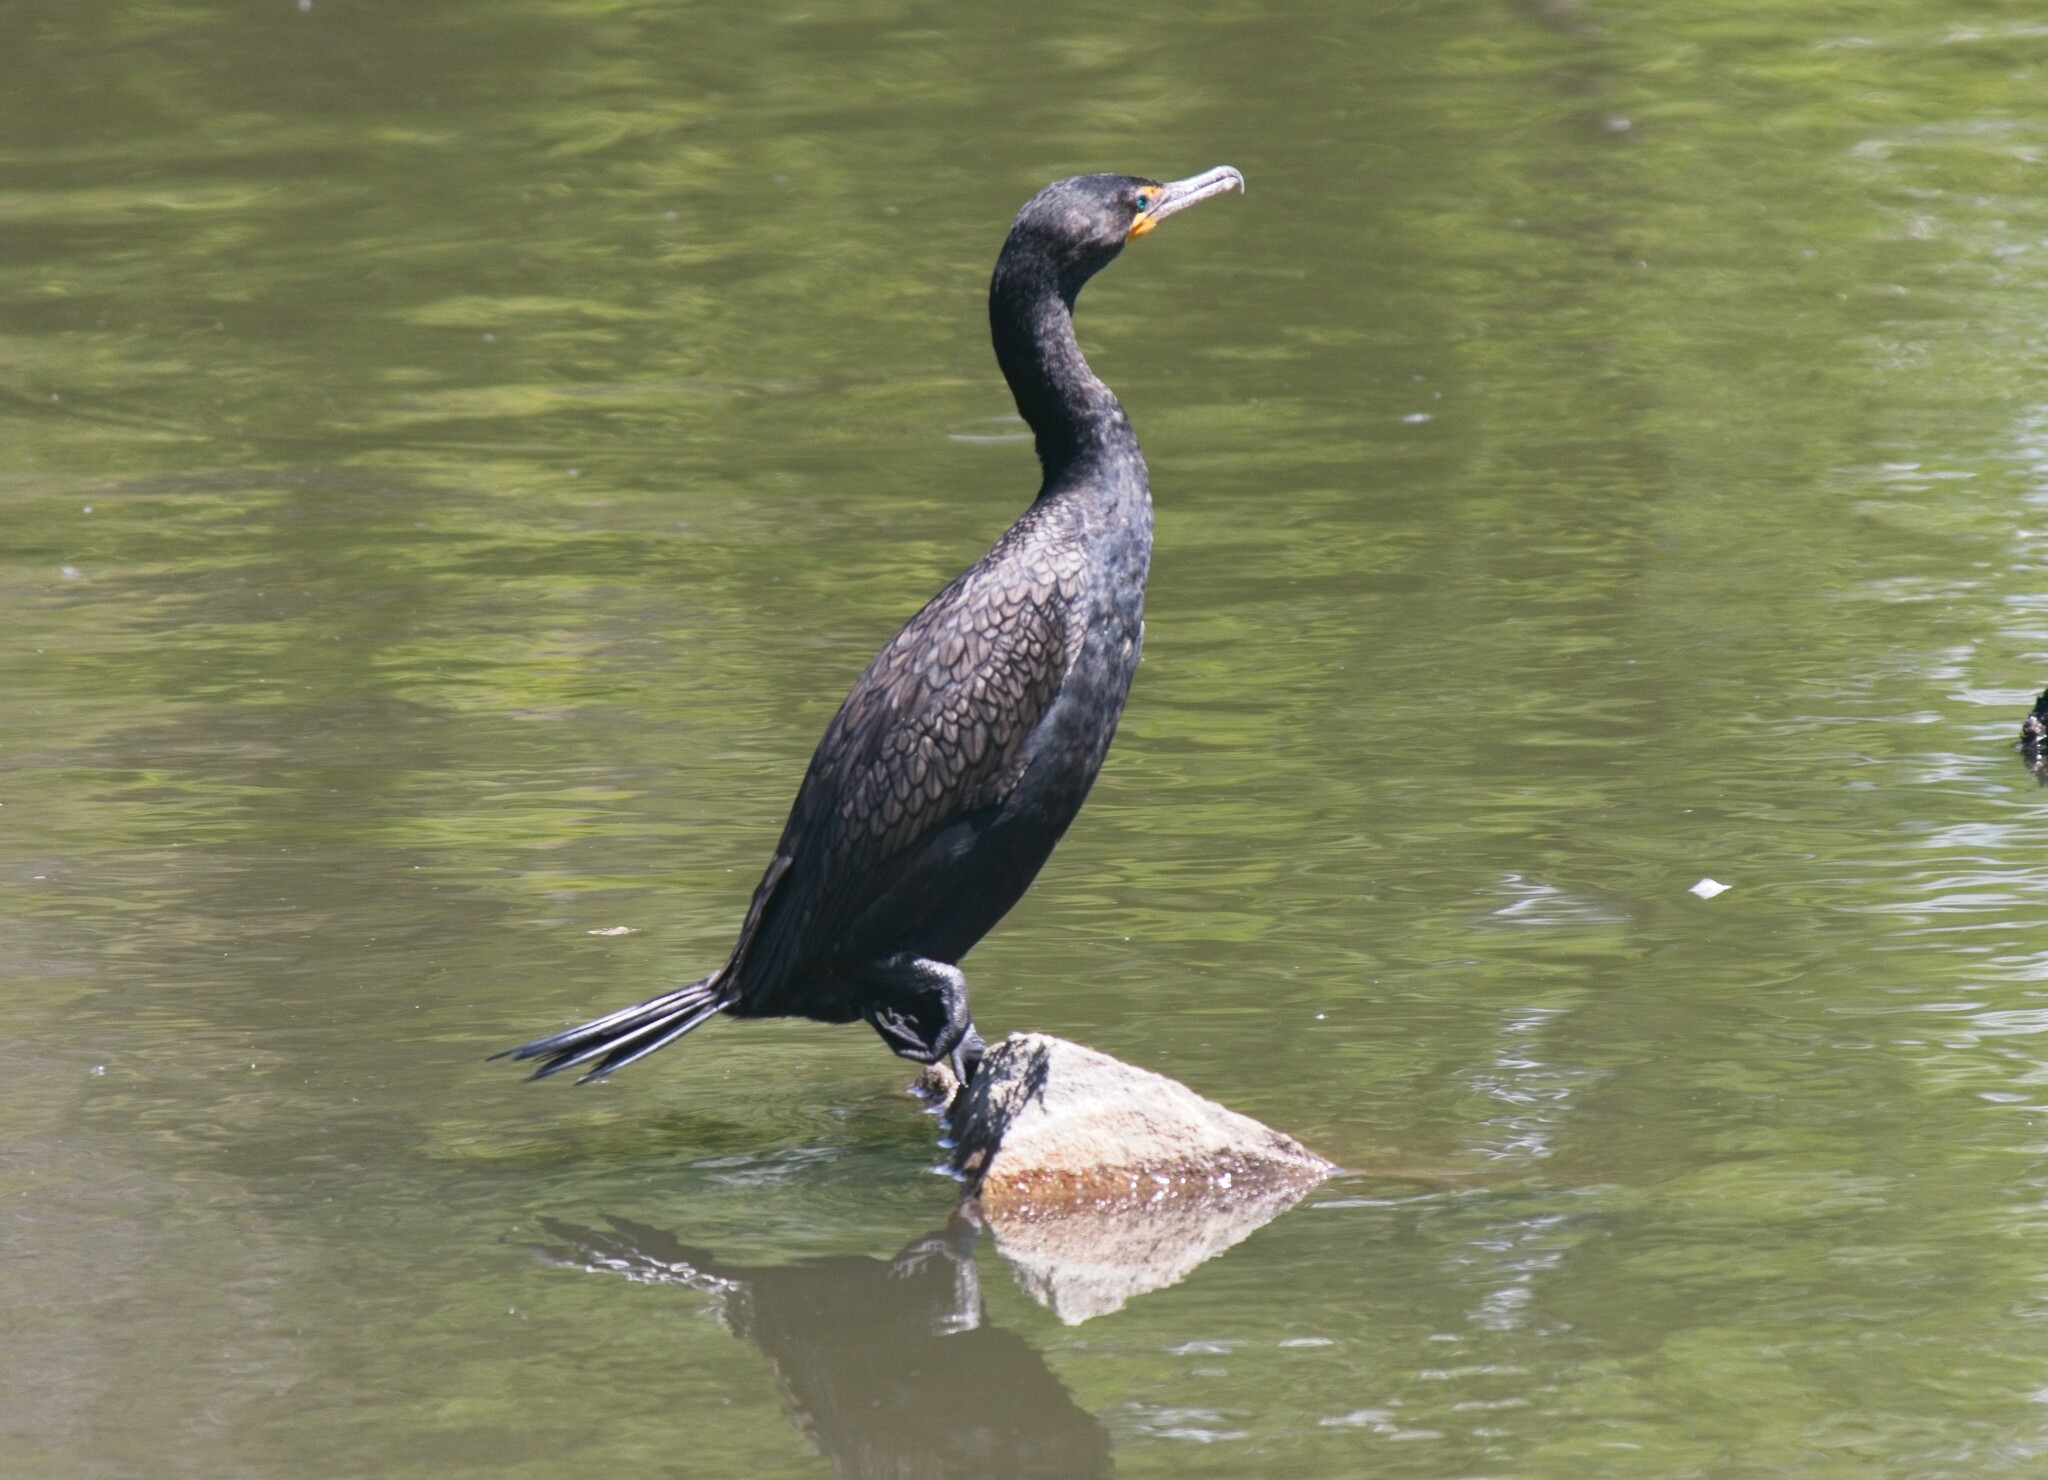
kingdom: Animalia
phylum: Chordata
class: Aves
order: Suliformes
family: Phalacrocoracidae
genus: Phalacrocorax
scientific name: Phalacrocorax auritus
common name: Double-crested cormorant
